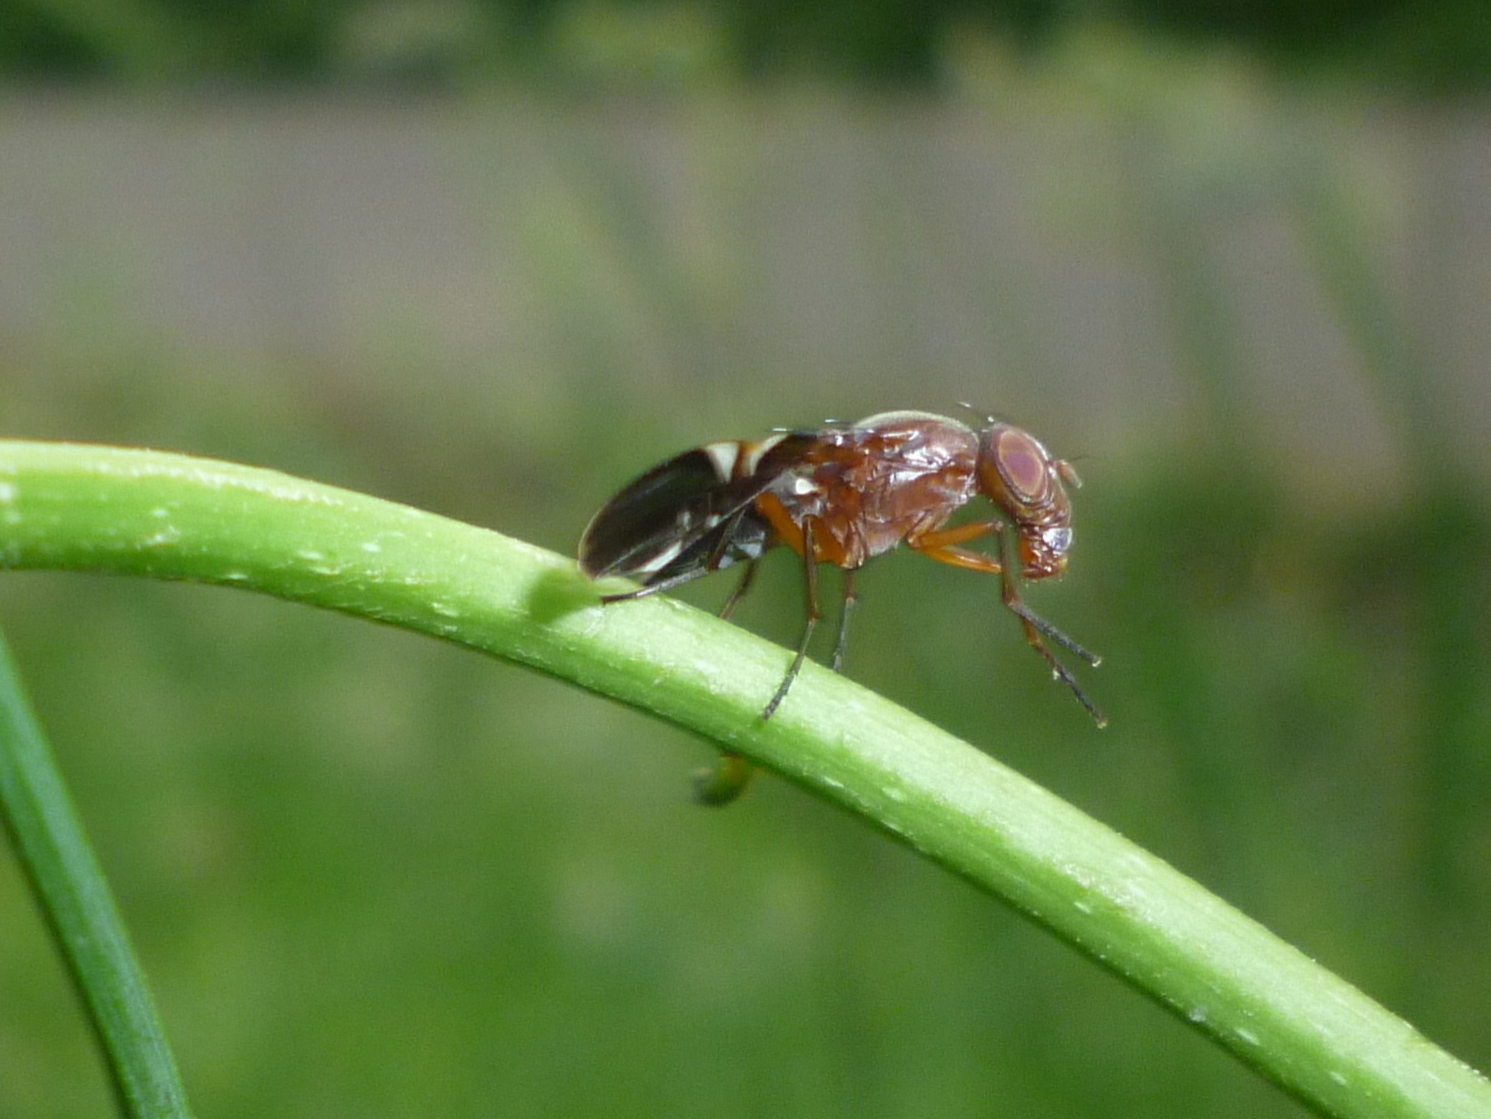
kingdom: Animalia
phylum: Arthropoda
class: Insecta
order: Diptera
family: Ulidiidae
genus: Delphinia
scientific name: Delphinia picta
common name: Common picture-winged fly
